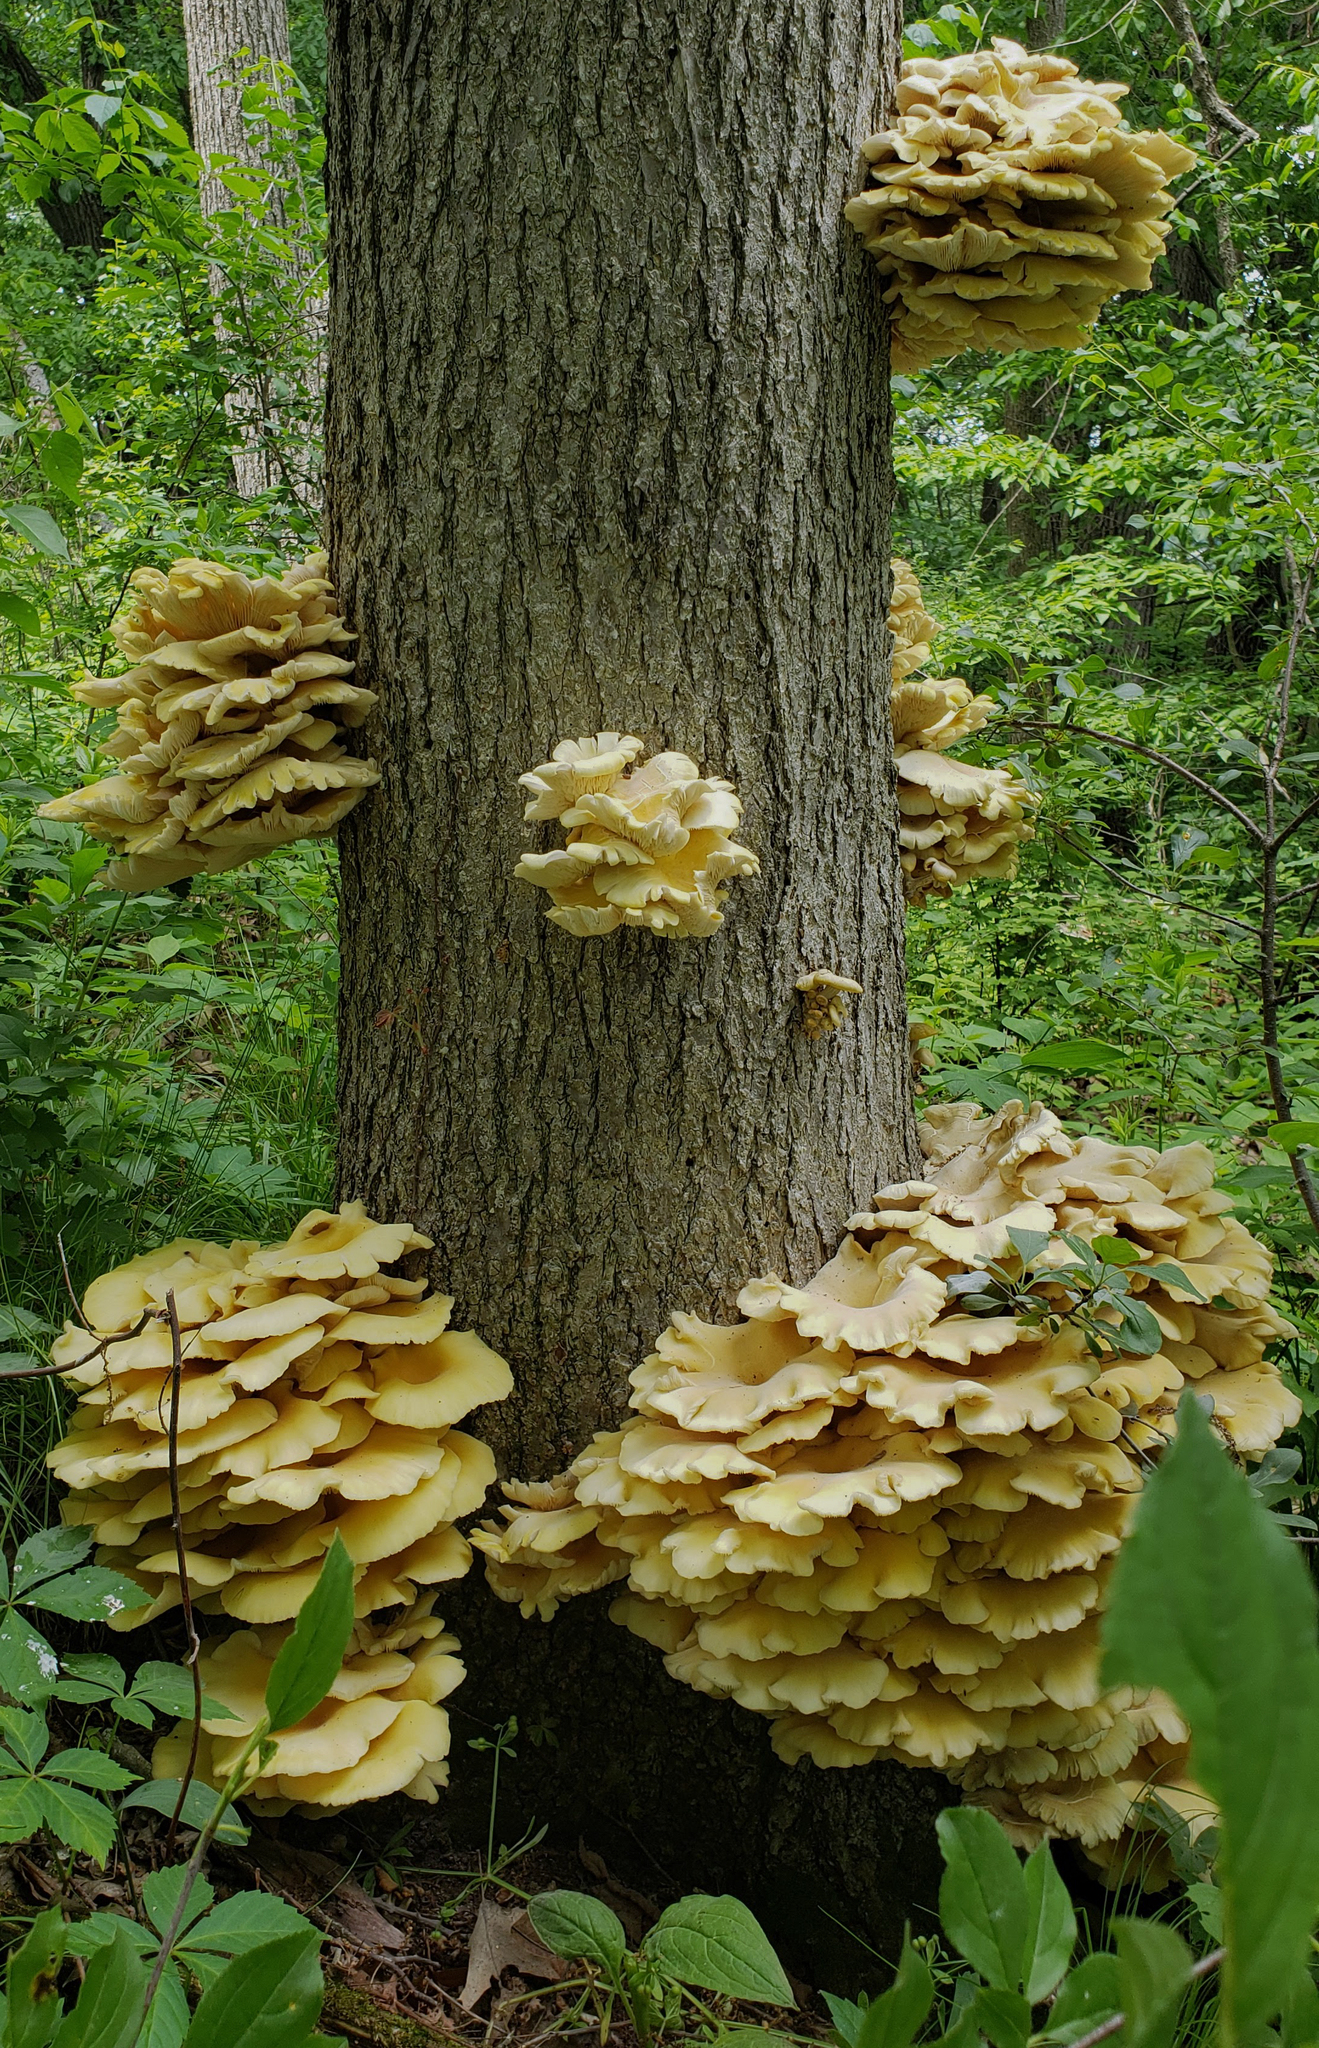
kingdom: Fungi
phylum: Basidiomycota
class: Agaricomycetes
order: Agaricales
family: Pleurotaceae
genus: Pleurotus
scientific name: Pleurotus citrinopileatus
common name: Golden oyster mushroom
